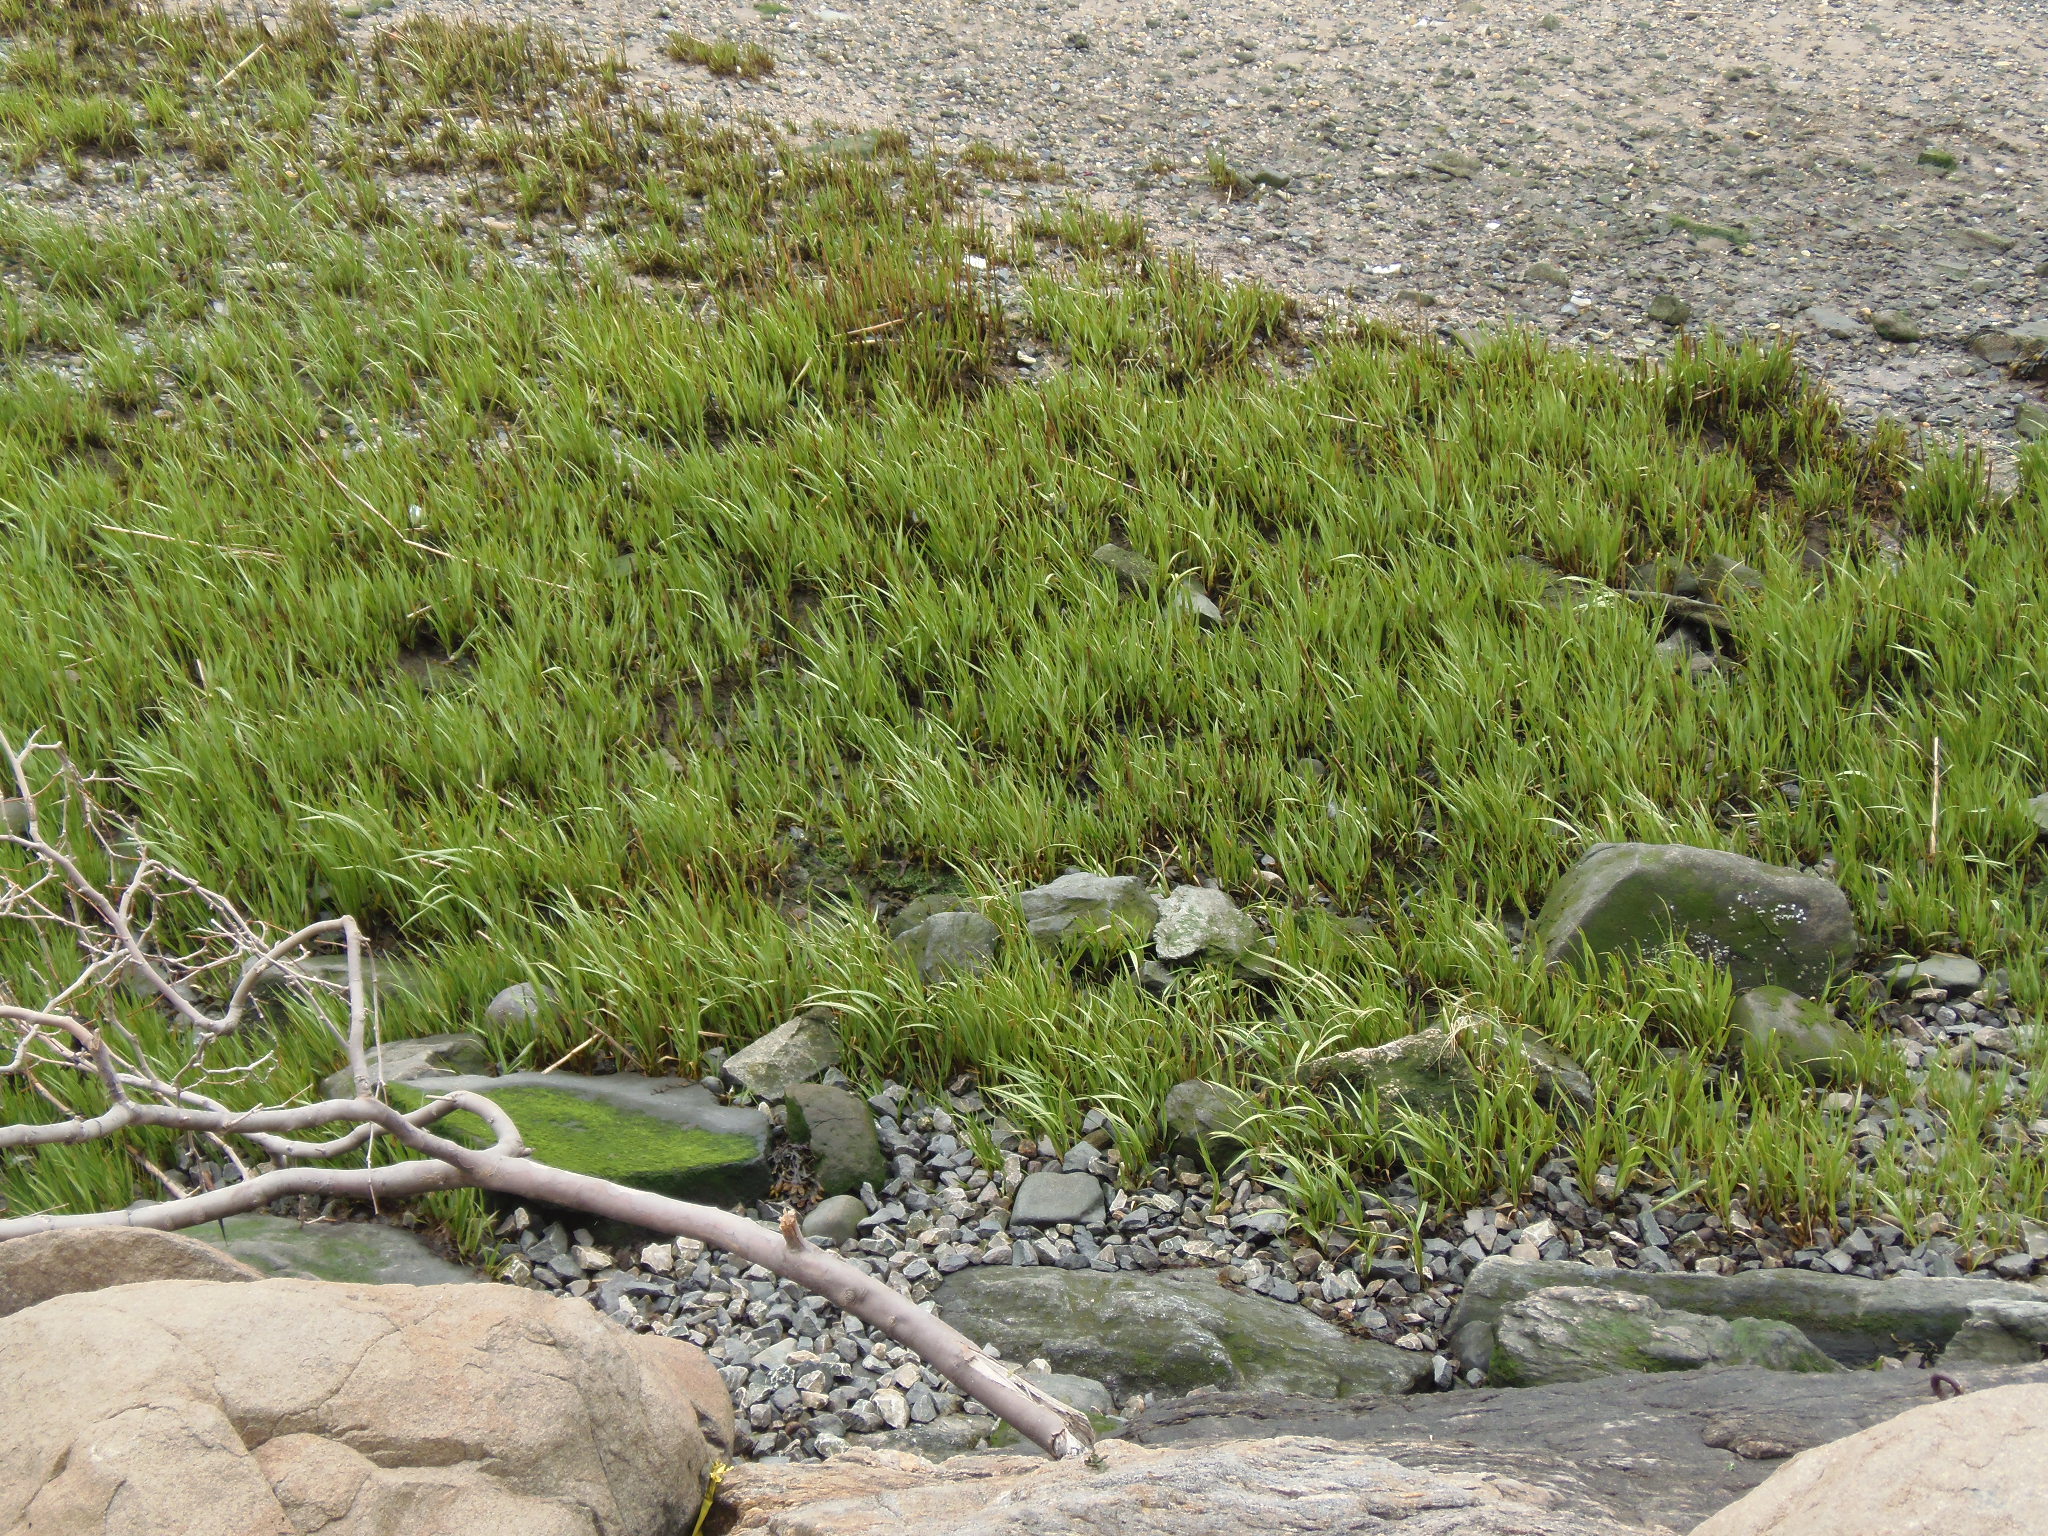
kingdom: Plantae
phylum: Tracheophyta
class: Liliopsida
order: Poales
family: Poaceae
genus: Sporobolus
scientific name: Sporobolus alterniflorus
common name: Atlantic cordgrass
